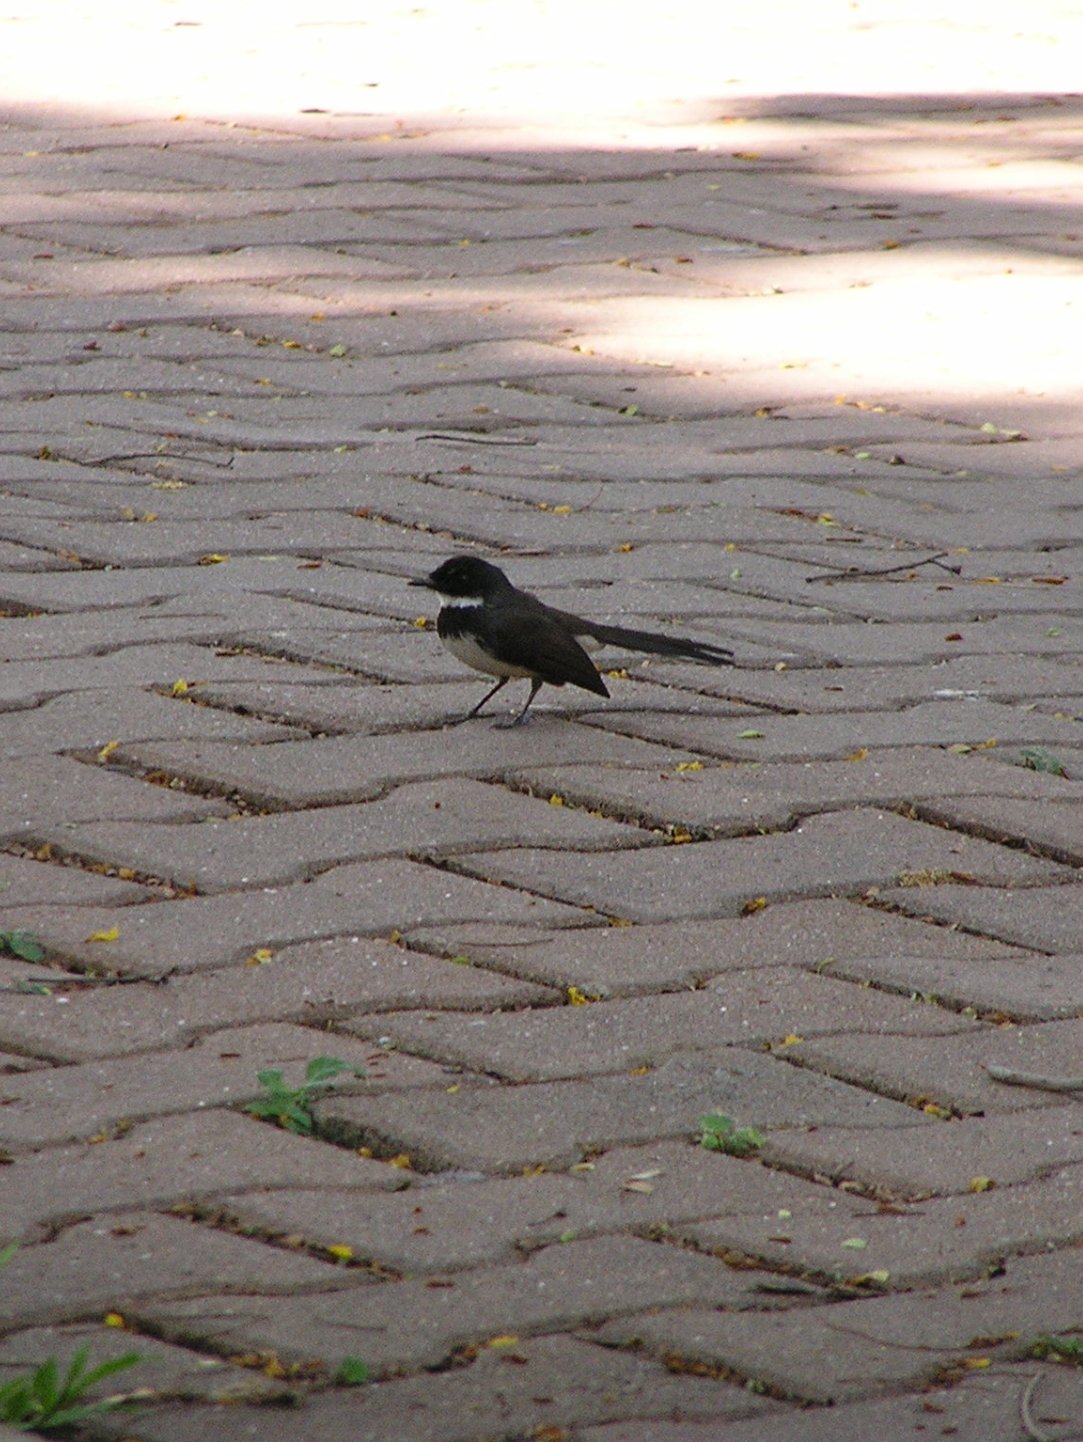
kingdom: Animalia
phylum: Chordata
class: Aves
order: Passeriformes
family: Rhipiduridae
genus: Rhipidura
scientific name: Rhipidura javanica
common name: Pied fantail
